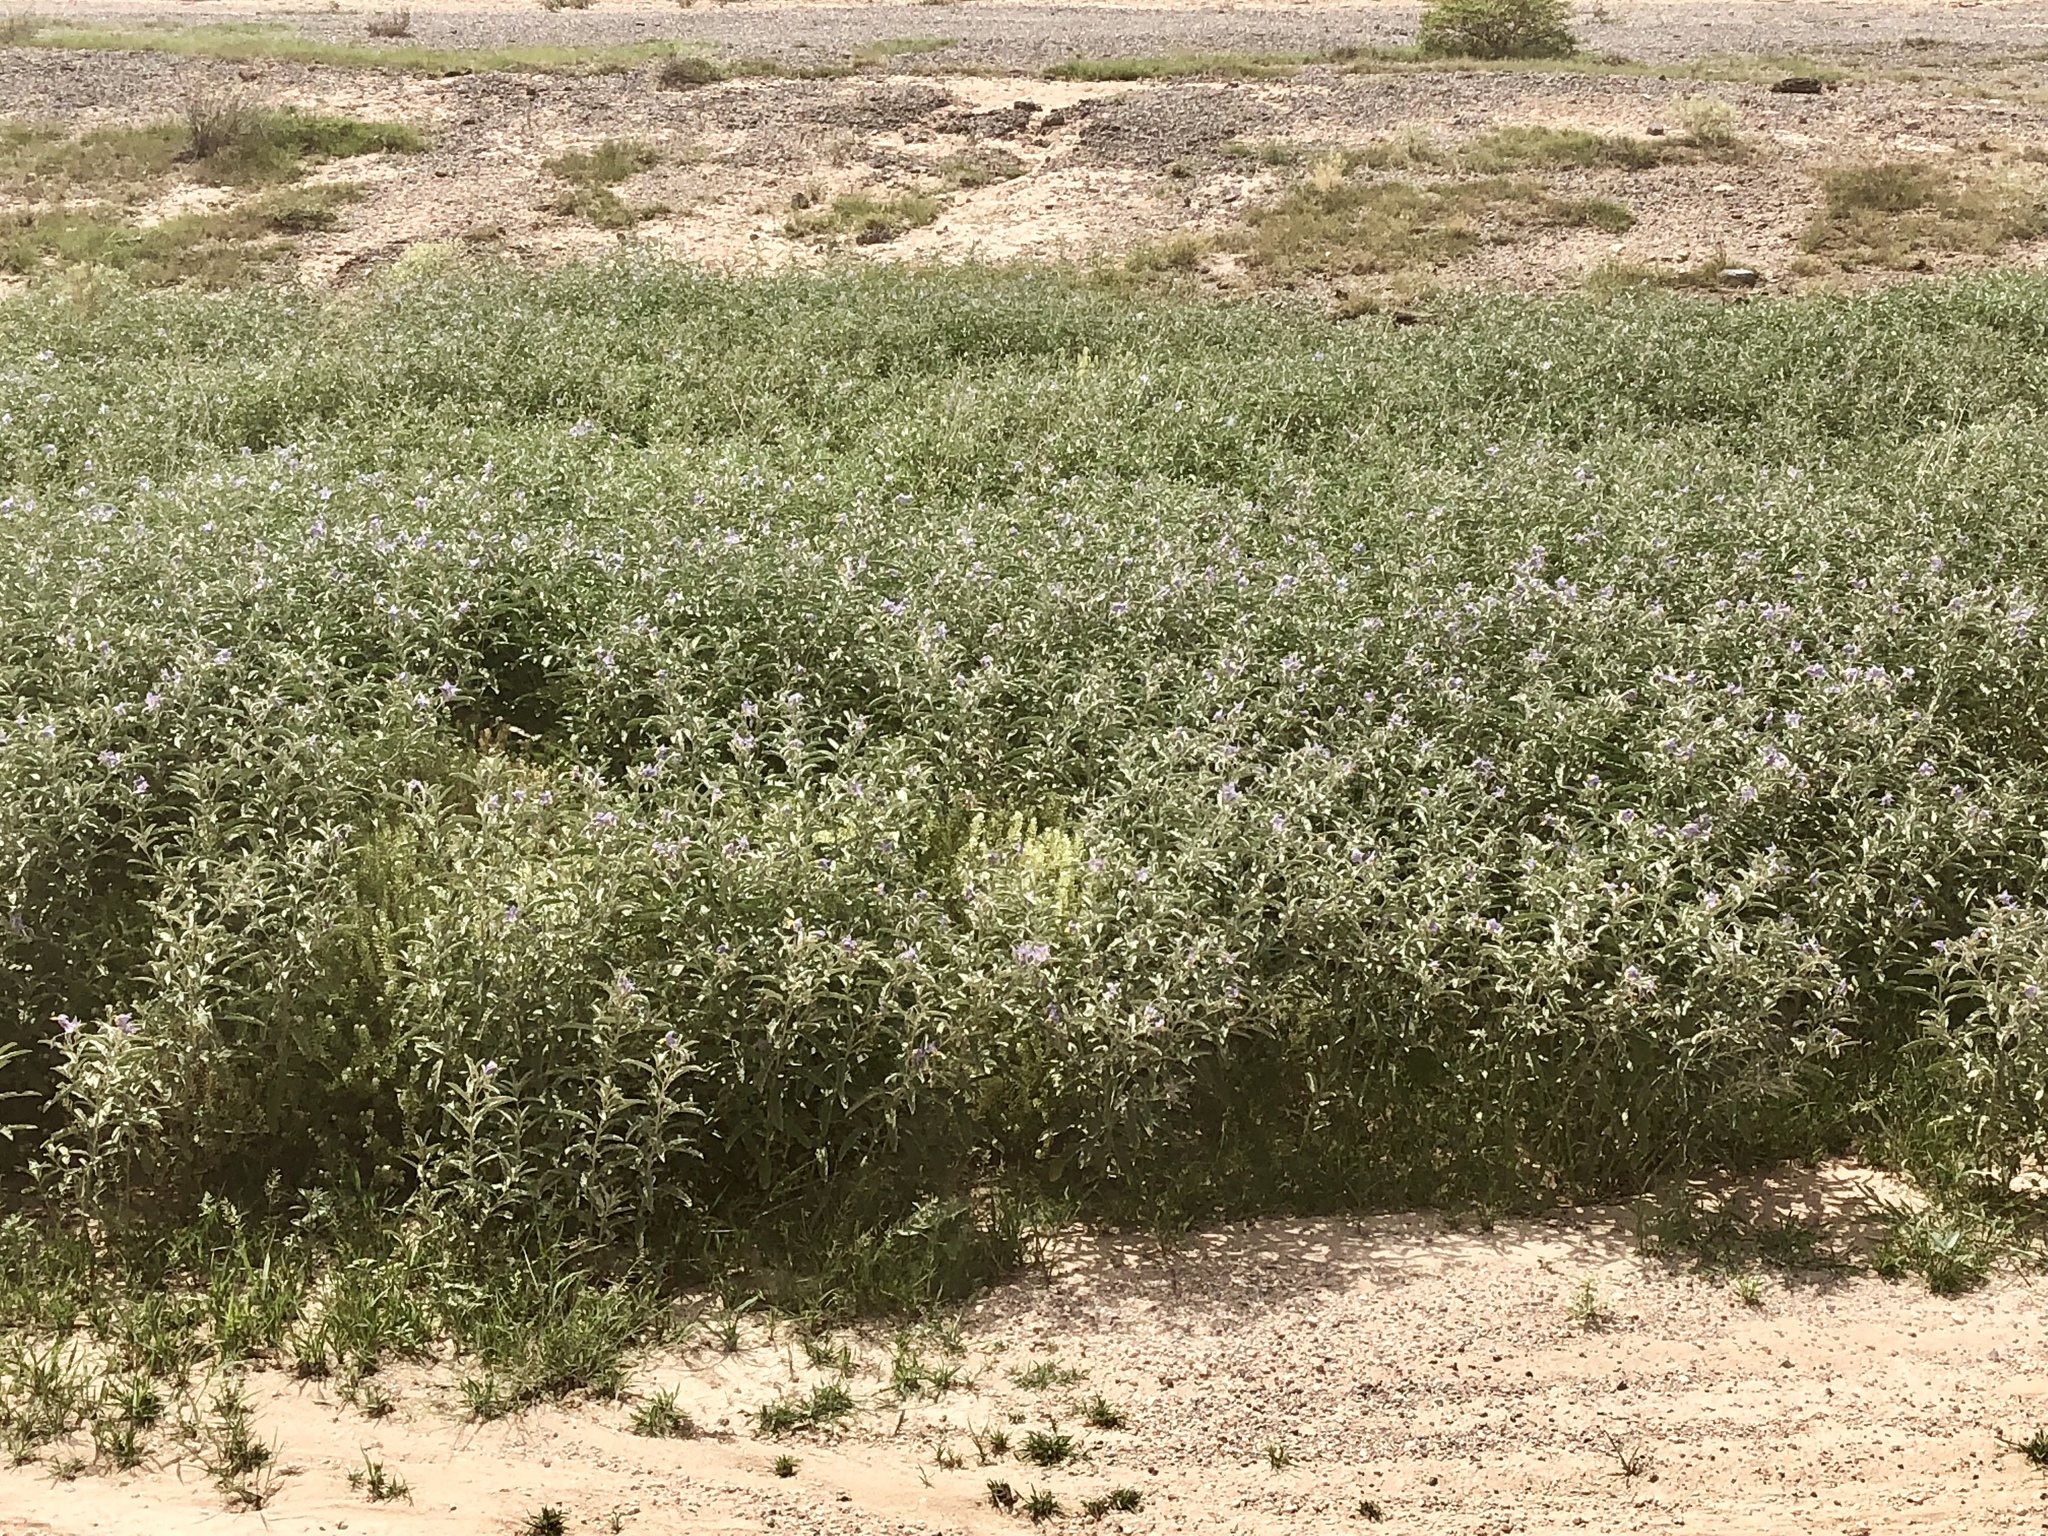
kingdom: Plantae
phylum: Tracheophyta
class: Magnoliopsida
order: Solanales
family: Solanaceae
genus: Solanum
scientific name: Solanum elaeagnifolium
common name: Silverleaf nightshade
